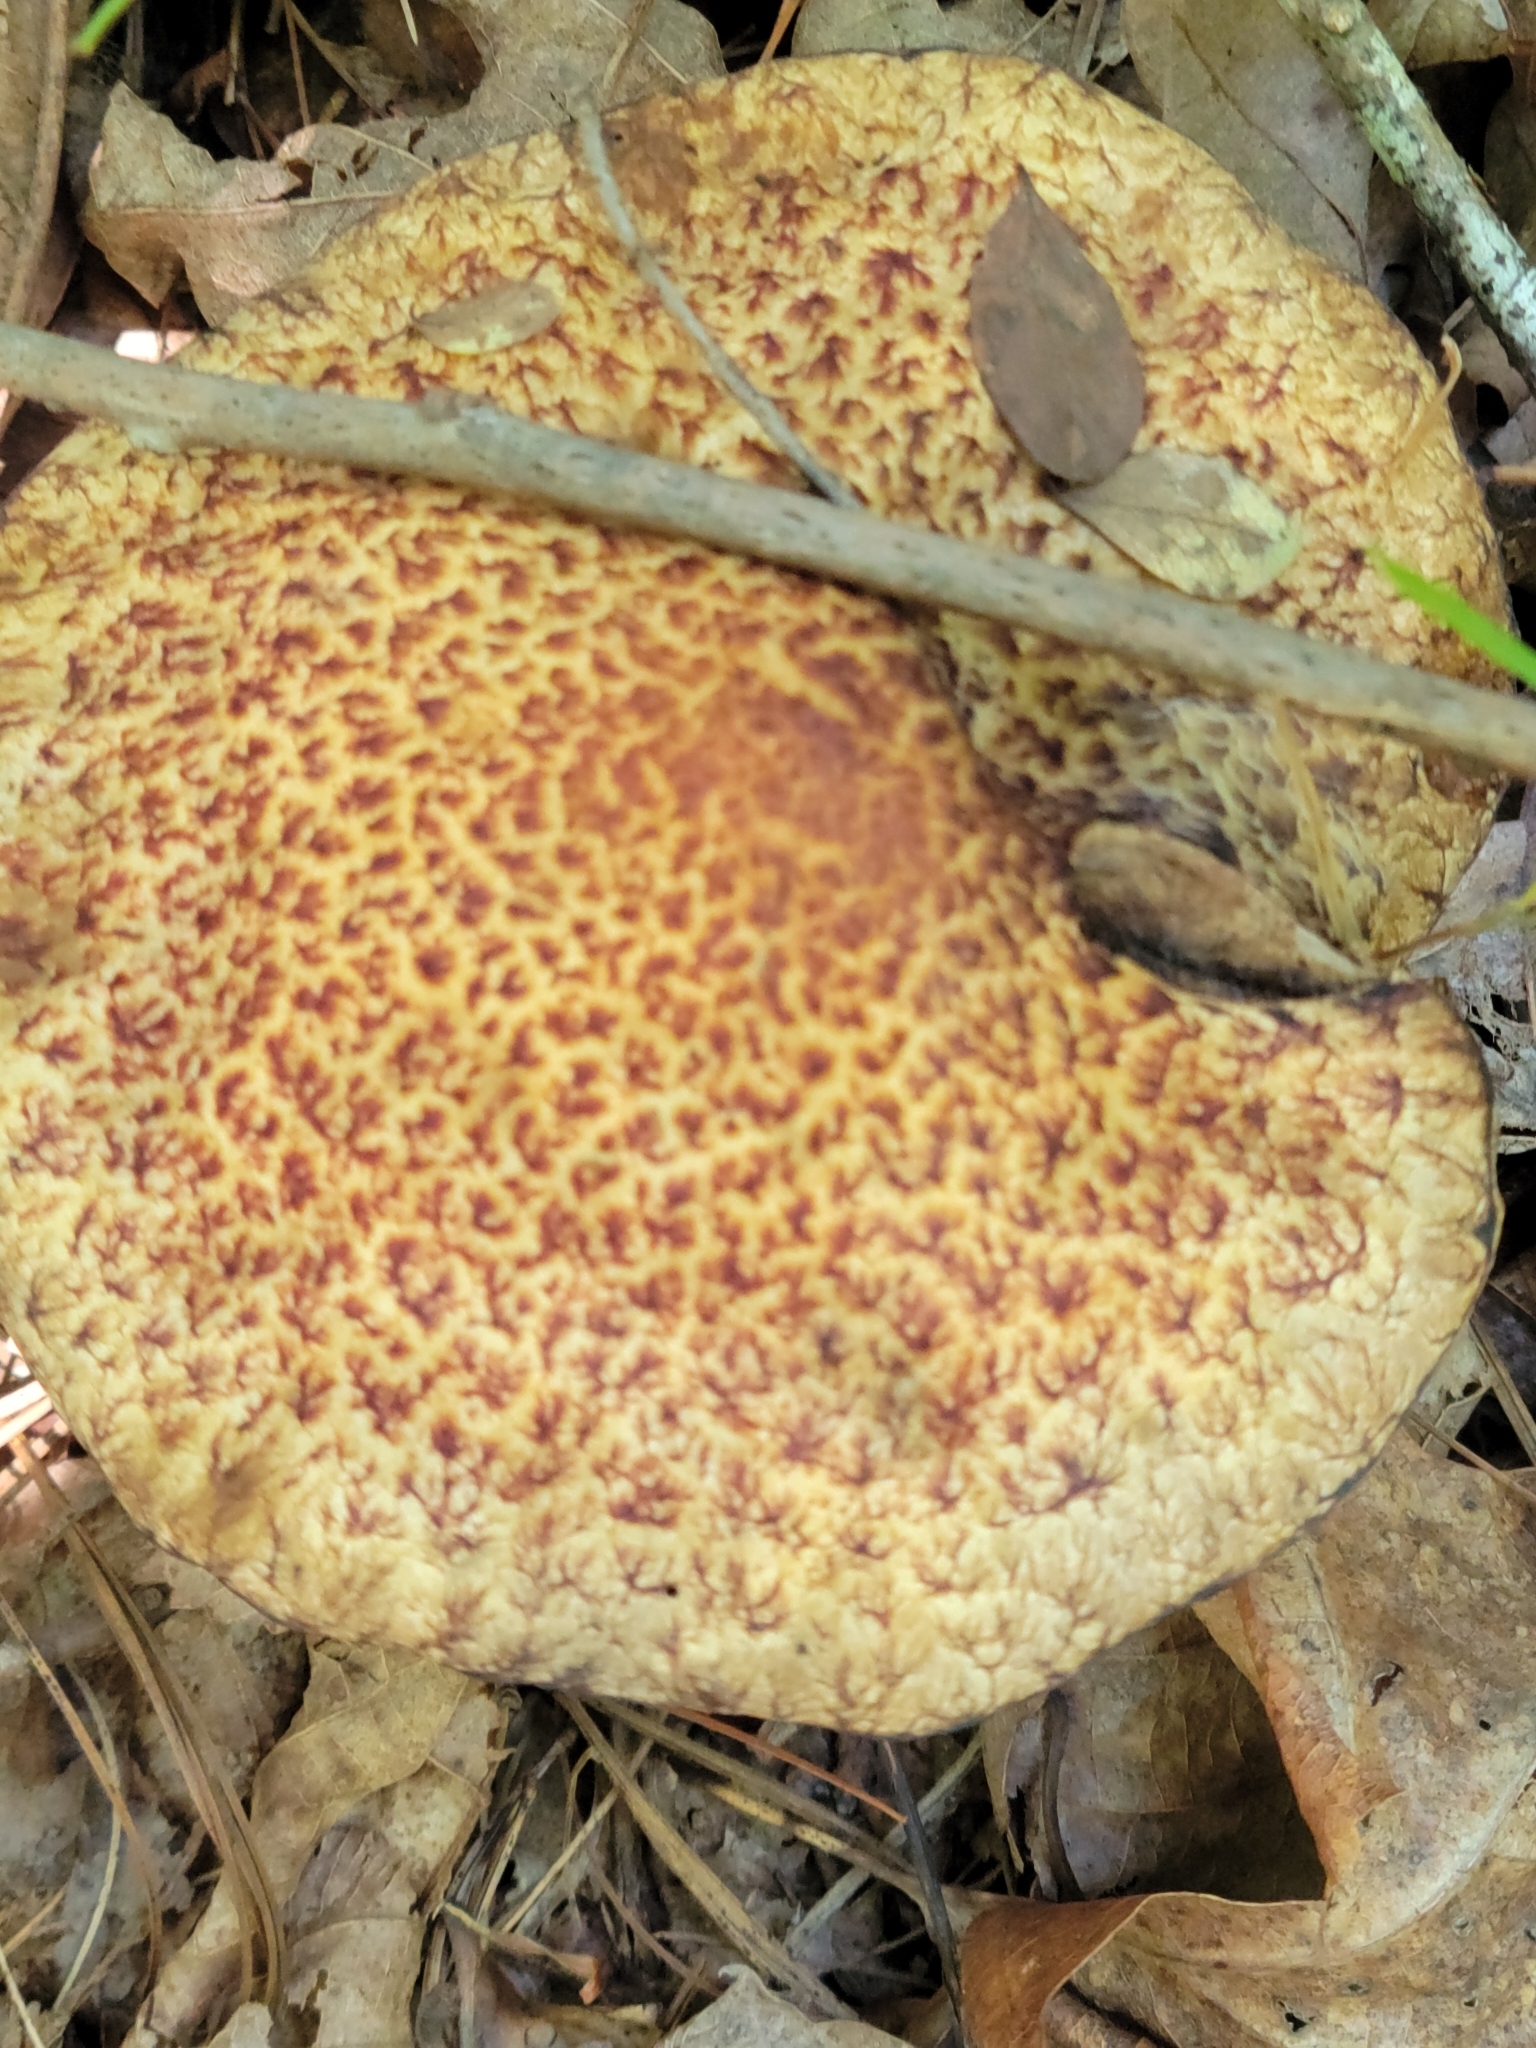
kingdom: Fungi
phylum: Basidiomycota
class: Agaricomycetes
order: Boletales
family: Suillaceae
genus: Suillus
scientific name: Suillus spraguei
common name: Painted suillus
